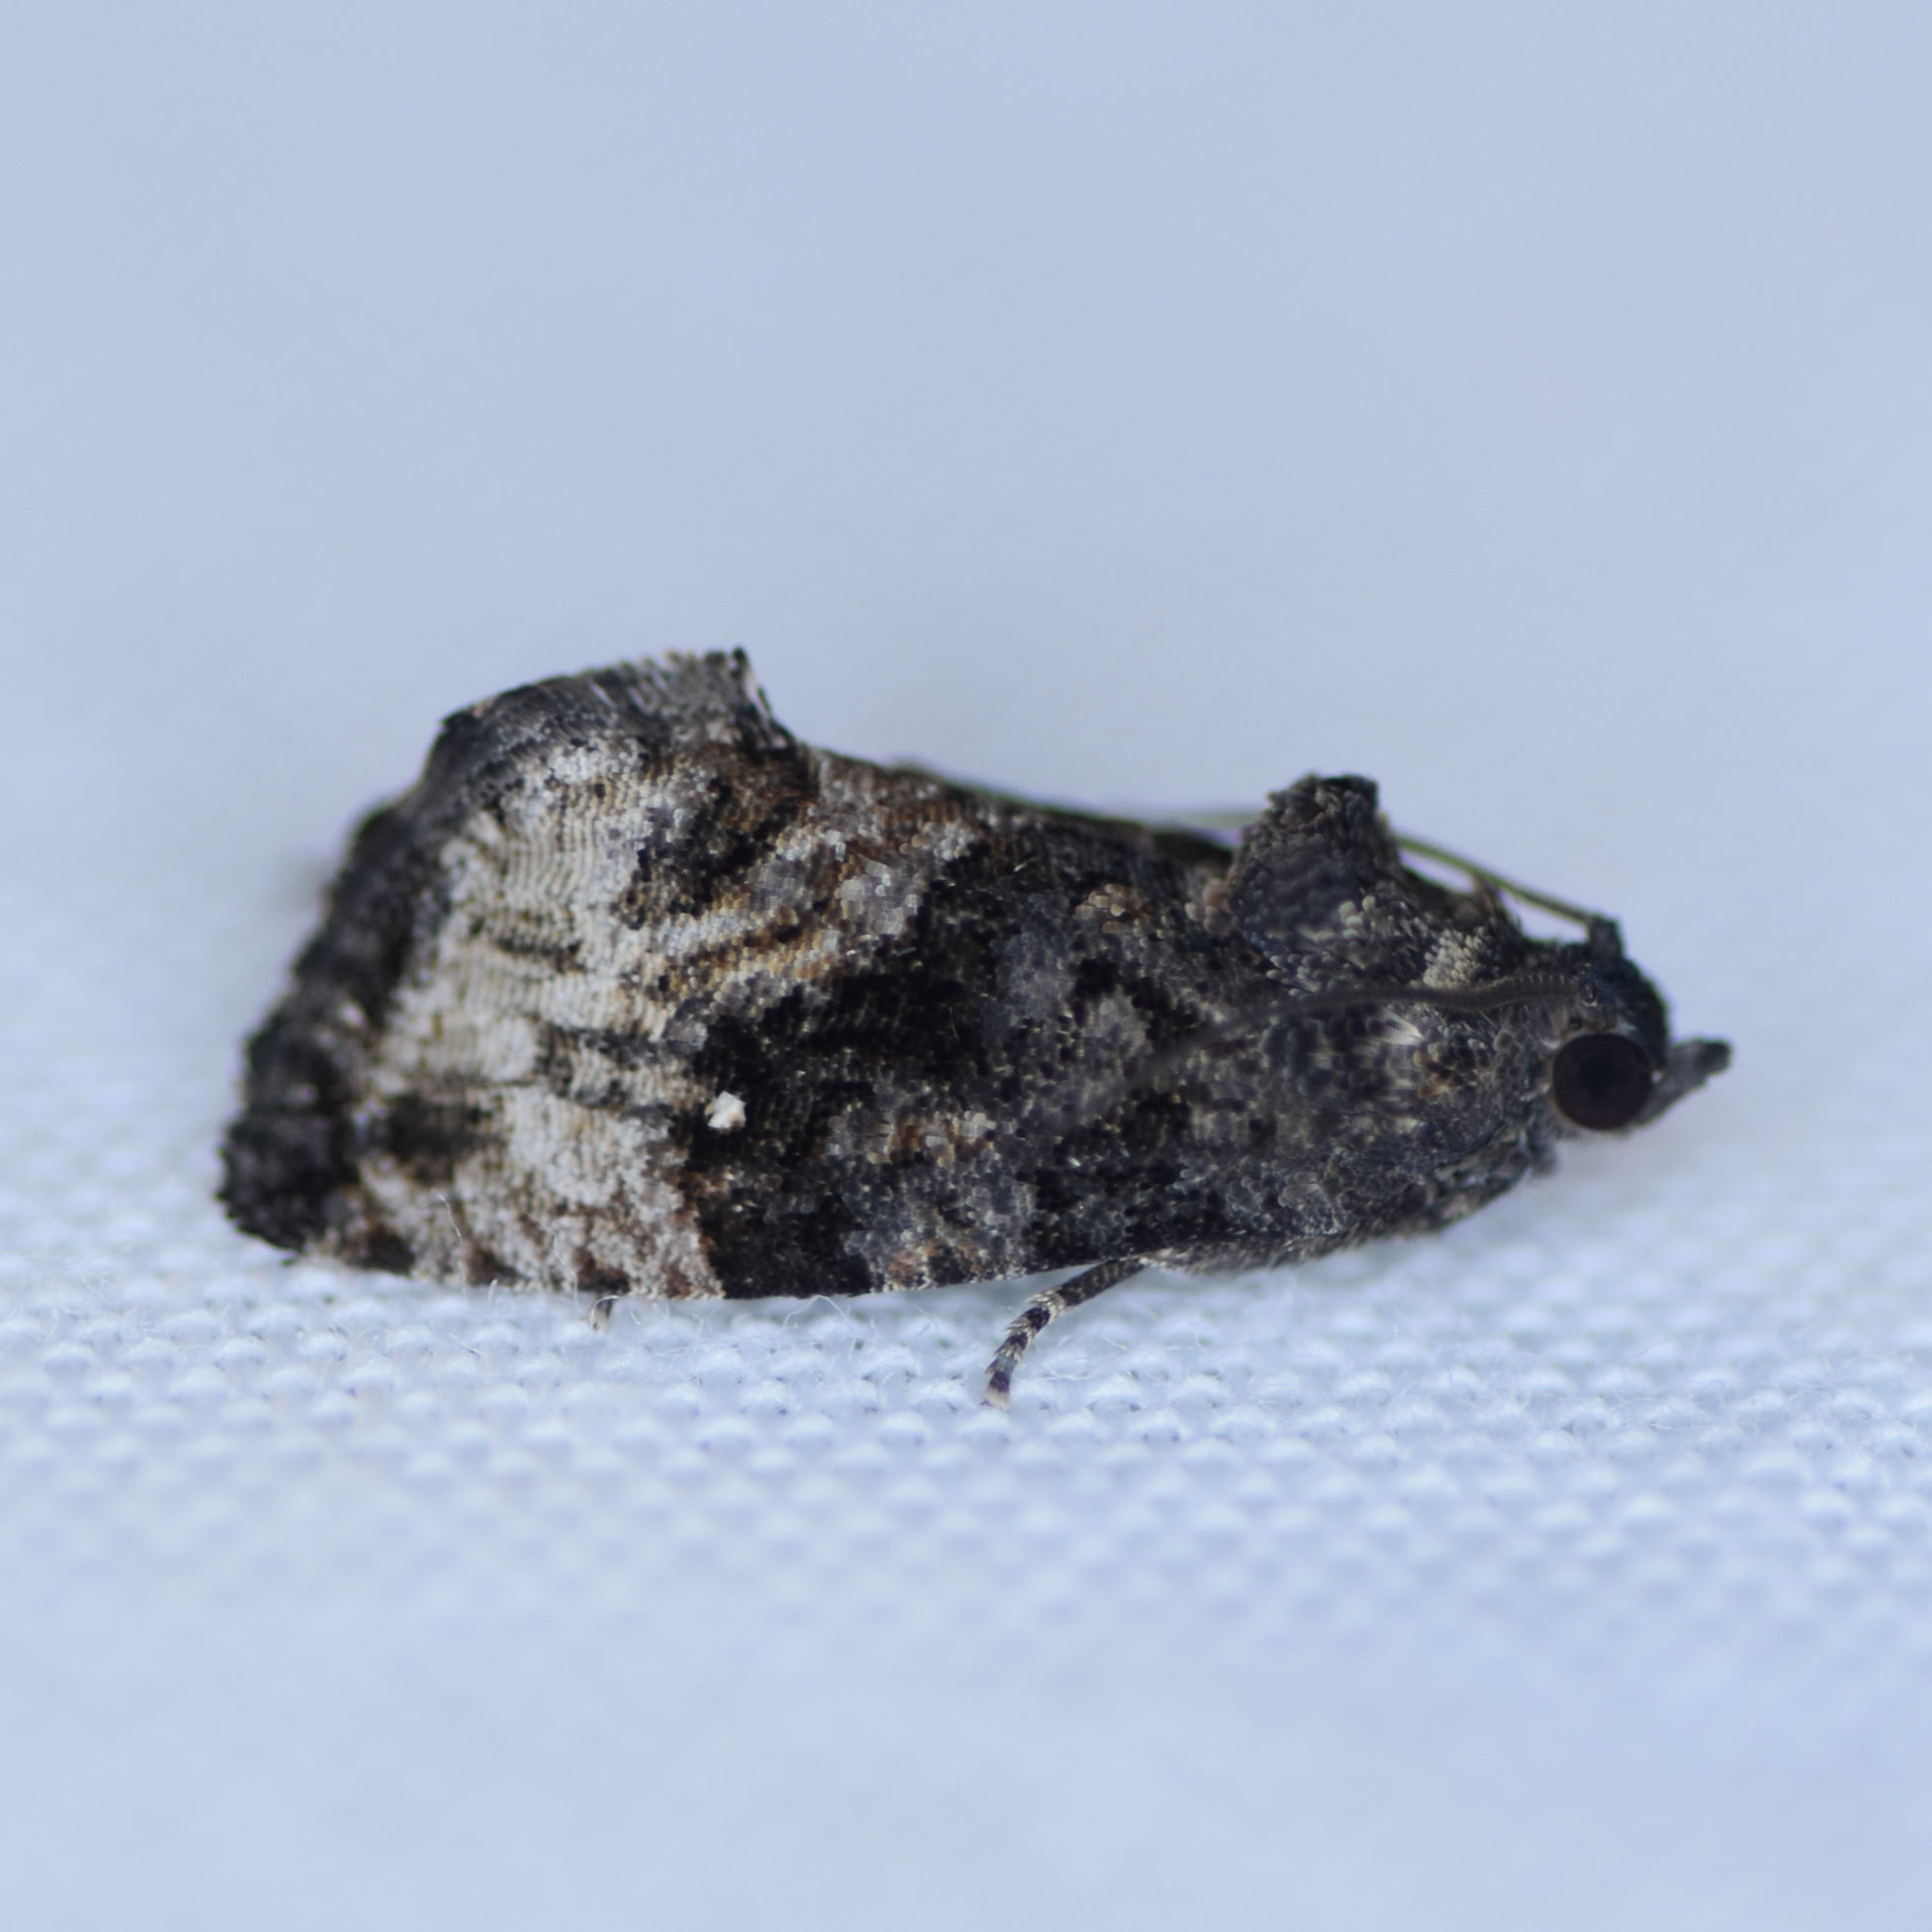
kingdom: Animalia
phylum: Arthropoda
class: Insecta
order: Lepidoptera
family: Tortricidae
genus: Gymnandrosoma
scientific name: Gymnandrosoma punctidiscanum
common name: Dotted ecdytolopha moth
